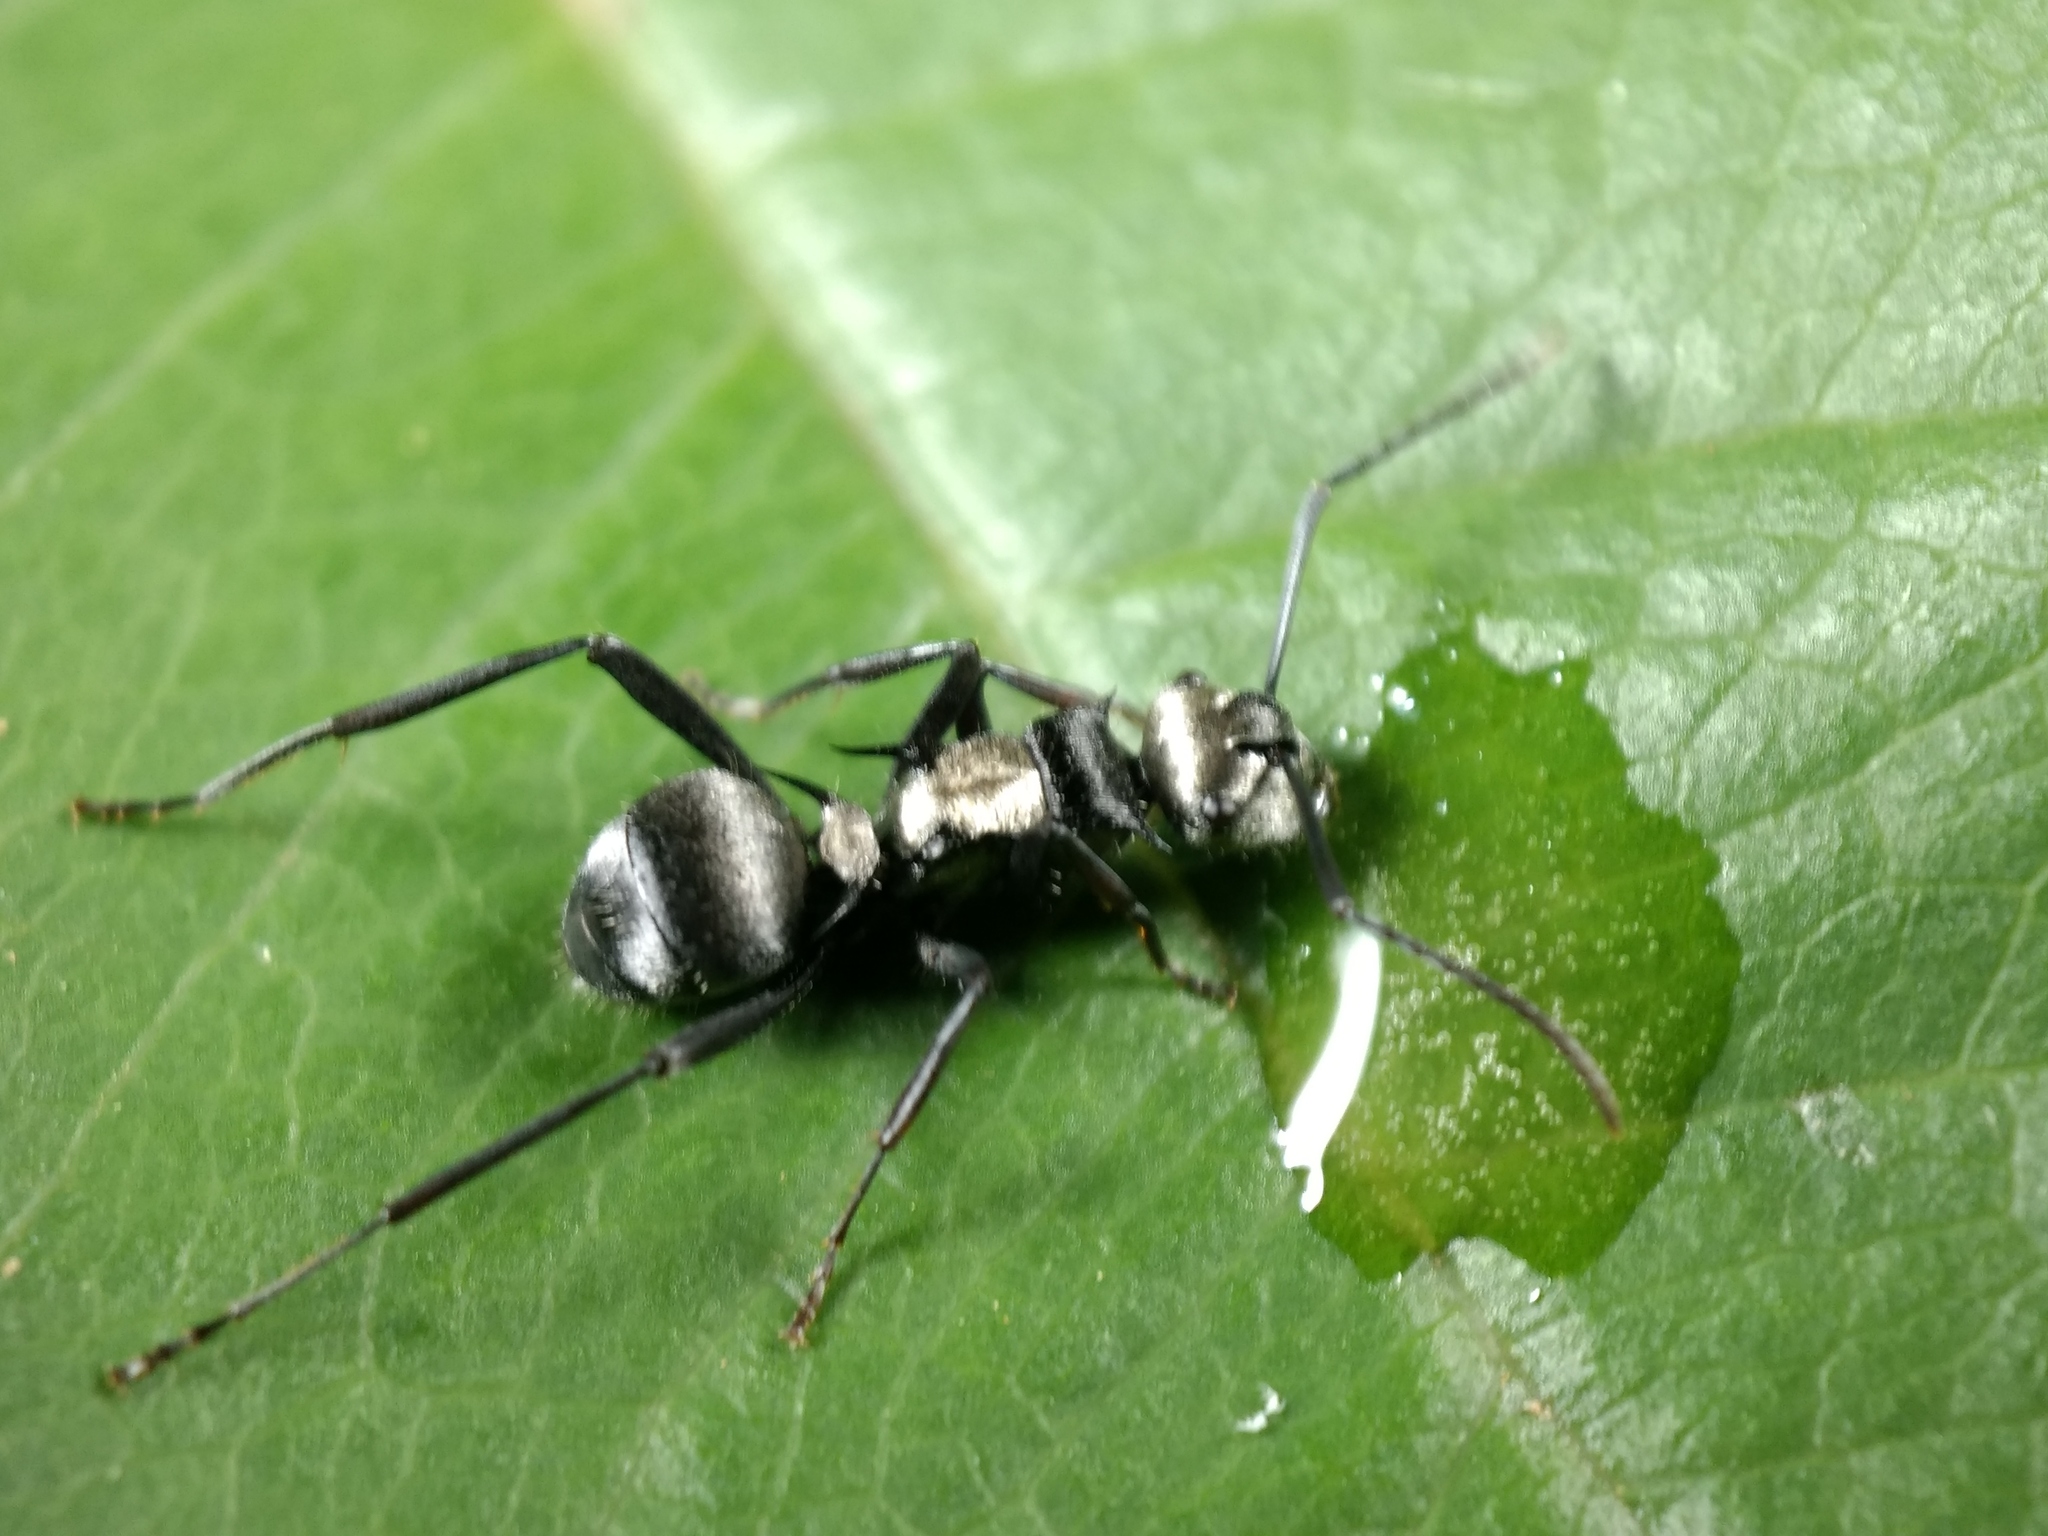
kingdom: Animalia
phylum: Arthropoda
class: Insecta
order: Hymenoptera
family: Formicidae
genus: Polyrhachis
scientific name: Polyrhachis daemeli
